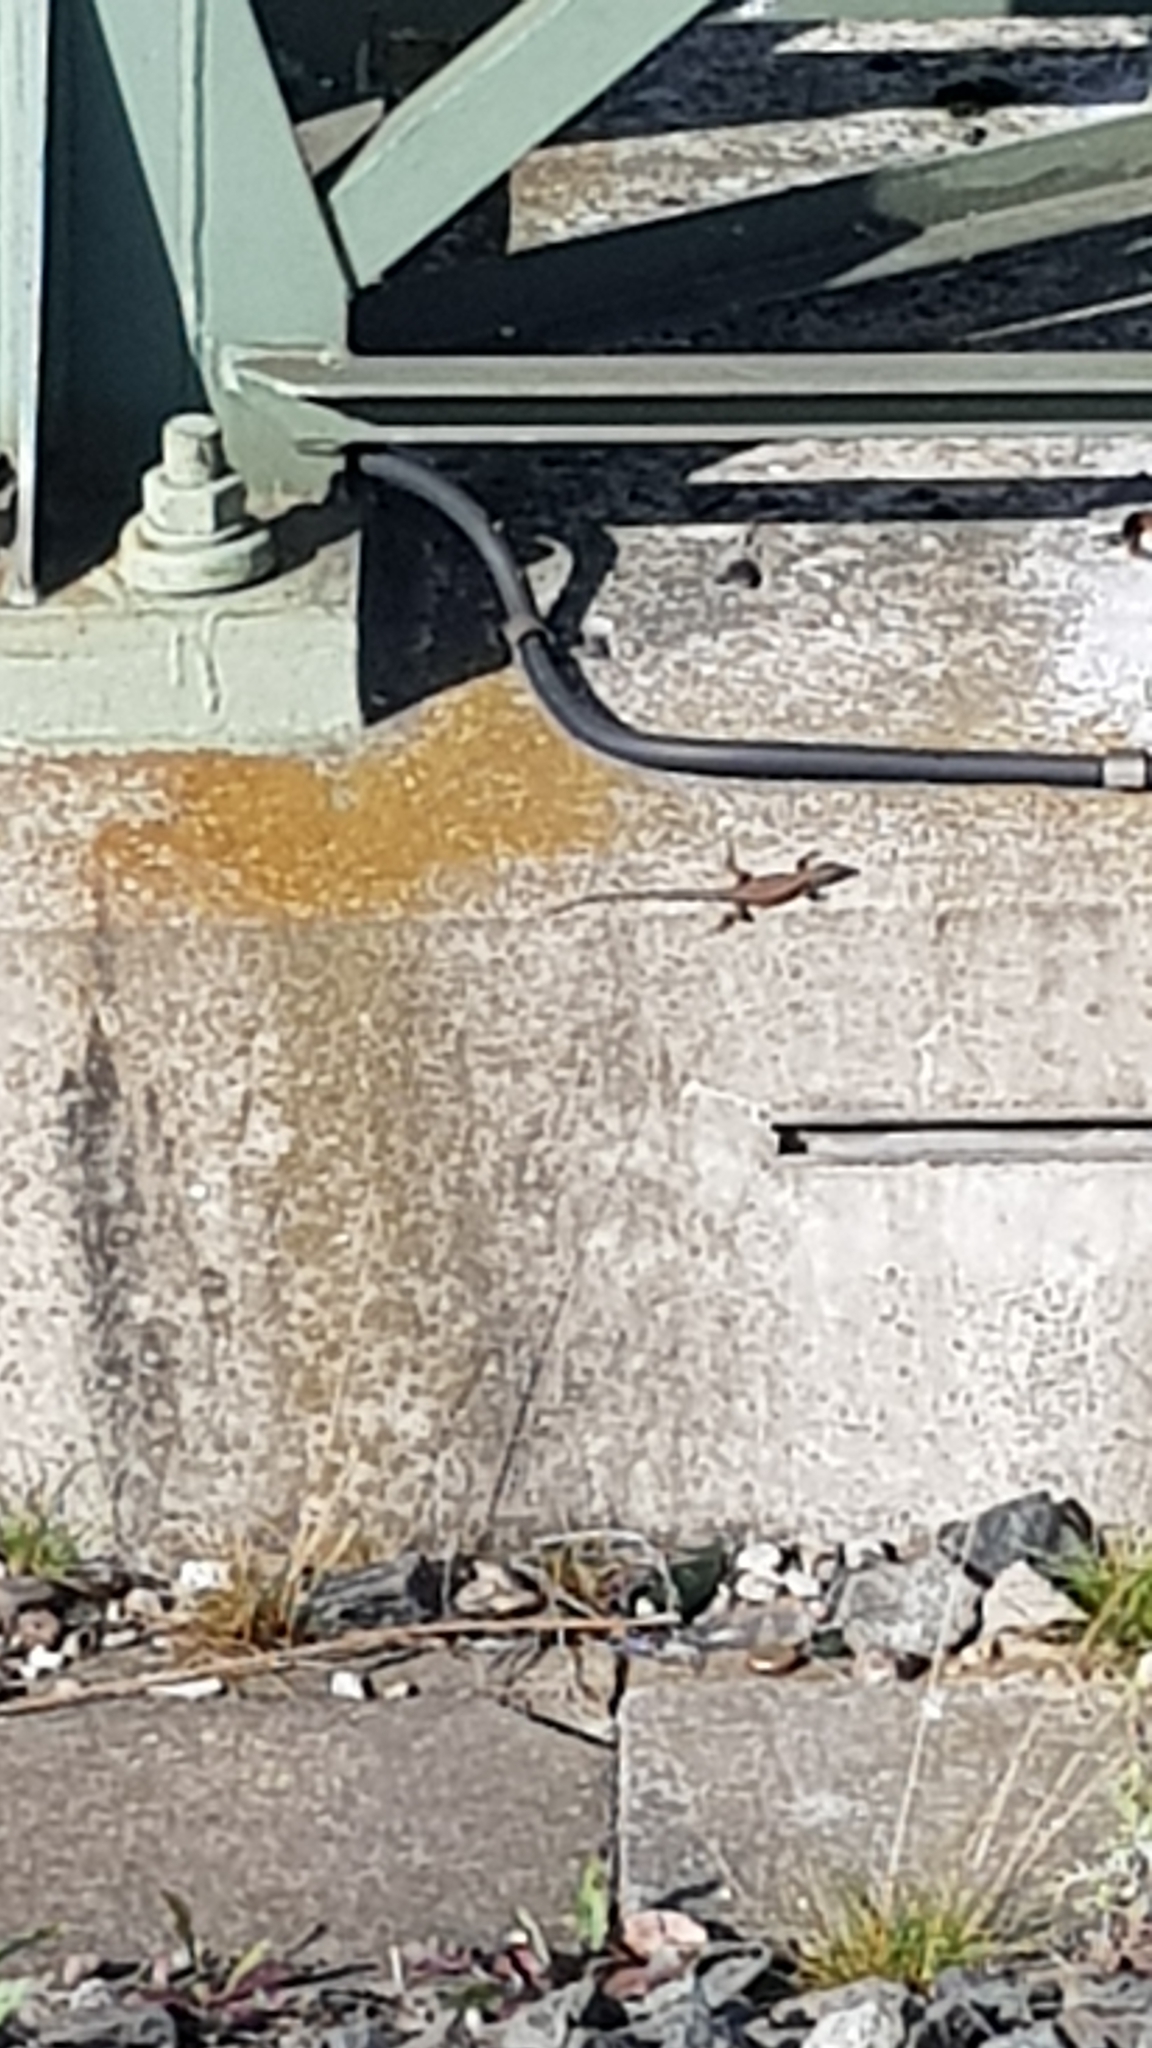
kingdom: Animalia
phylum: Chordata
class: Squamata
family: Lacertidae
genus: Podarcis
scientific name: Podarcis muralis
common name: Common wall lizard
